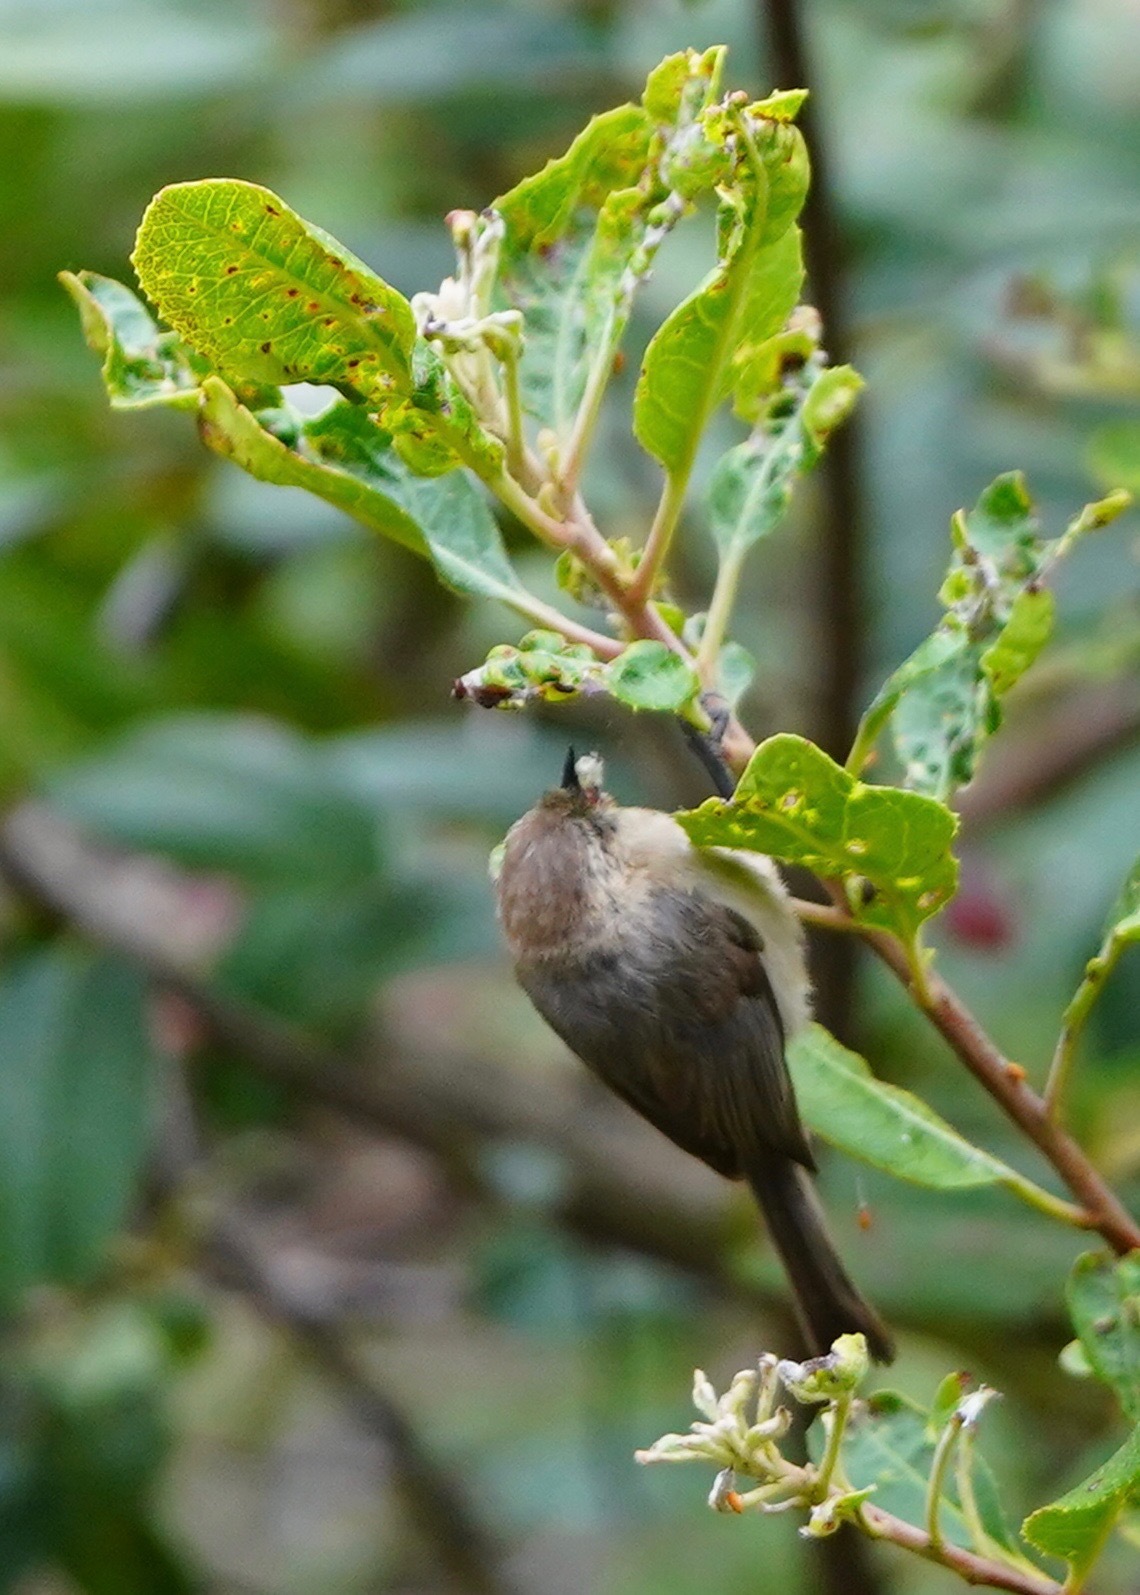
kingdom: Animalia
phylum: Chordata
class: Aves
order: Passeriformes
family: Aegithalidae
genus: Psaltriparus
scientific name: Psaltriparus minimus
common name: American bushtit
